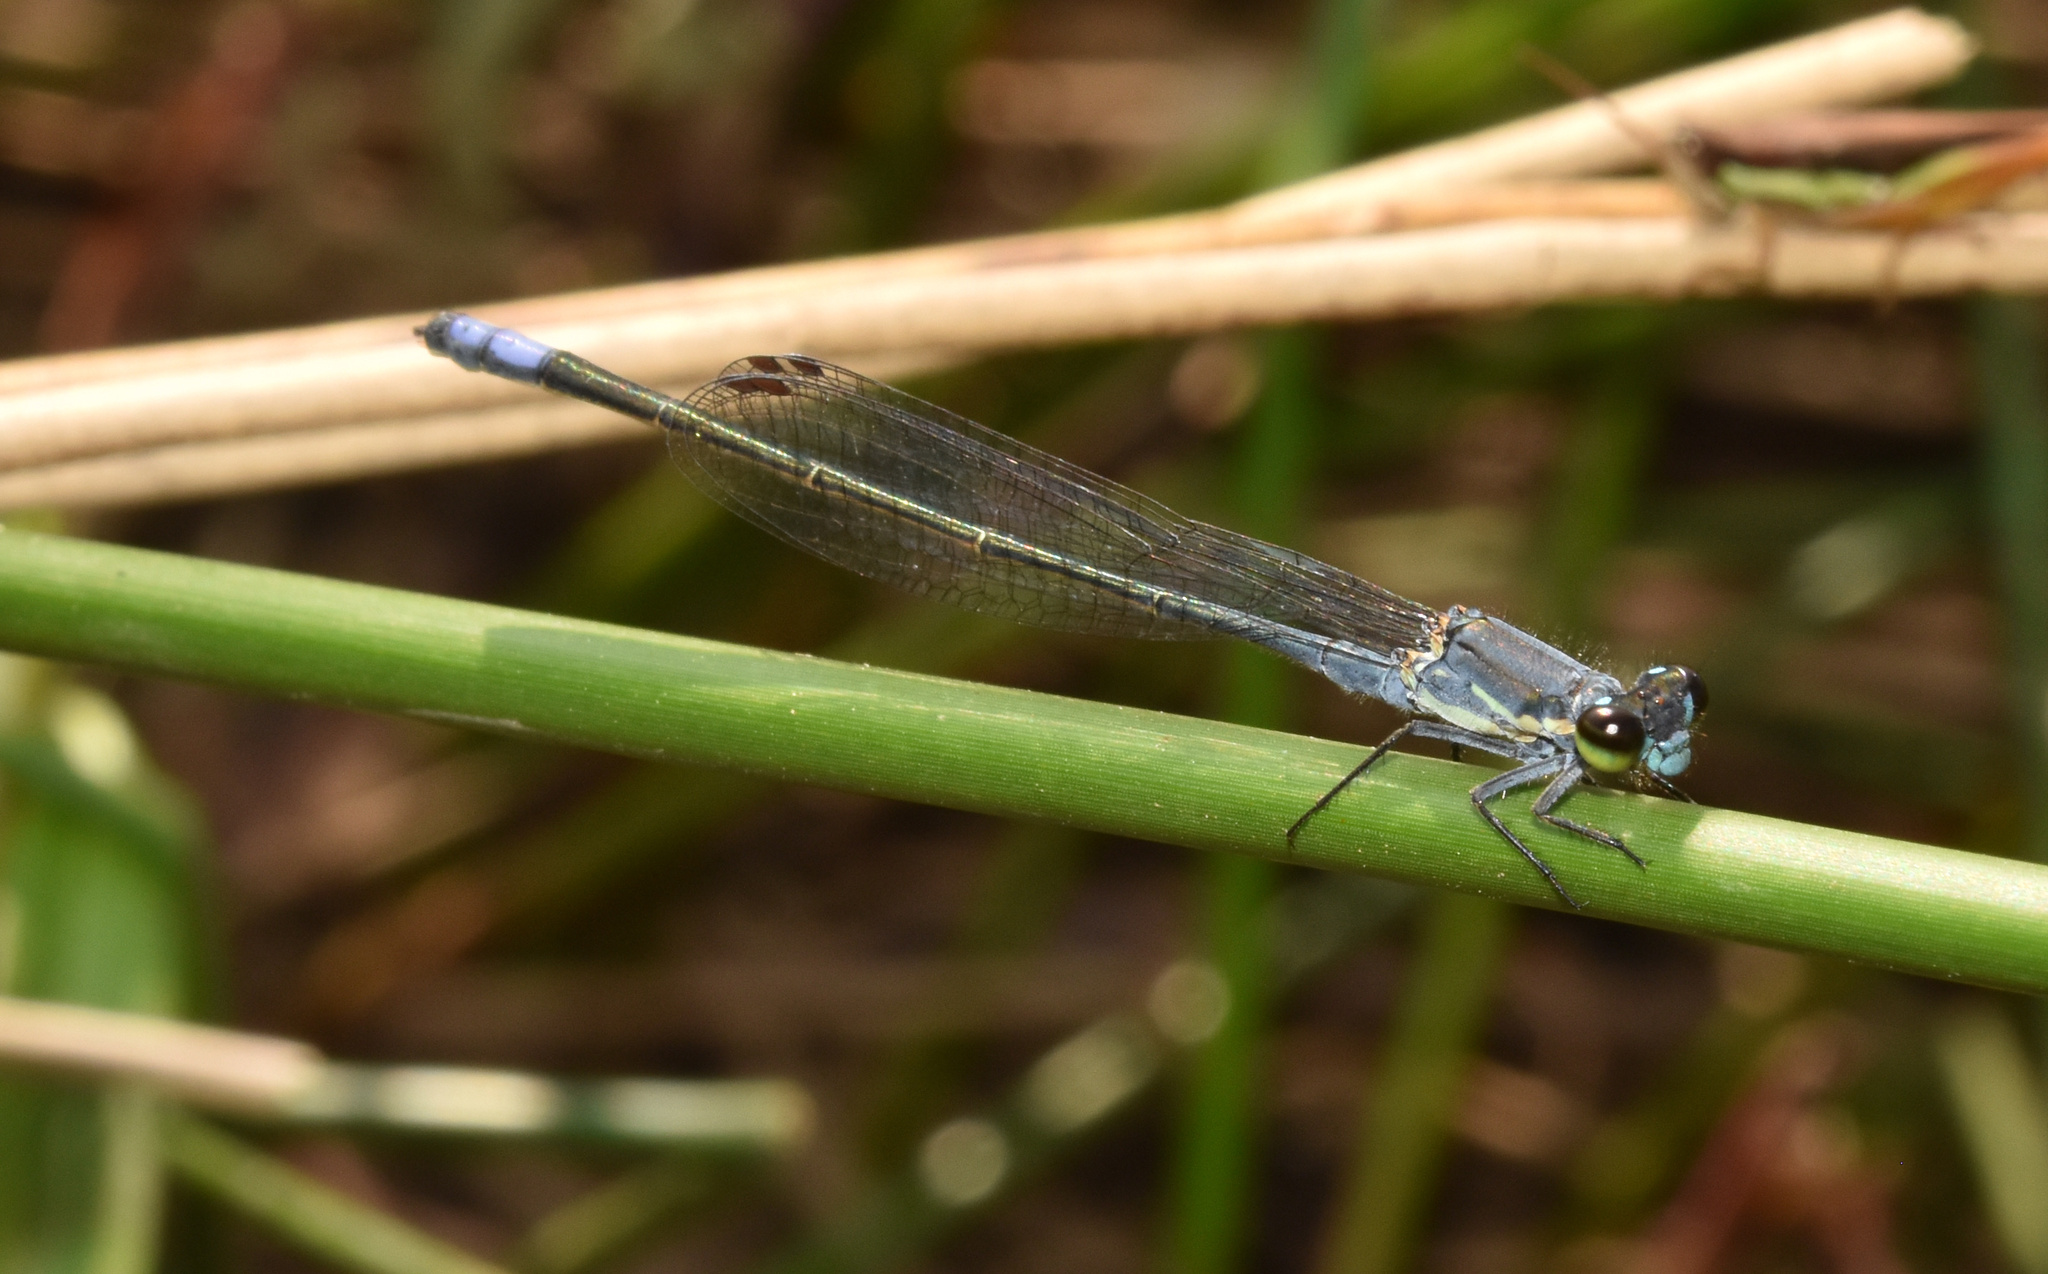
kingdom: Animalia
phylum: Arthropoda
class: Insecta
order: Odonata
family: Coenagrionidae
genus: Pseudagrion
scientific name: Pseudagrion salisburyense
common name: Slate sprite
